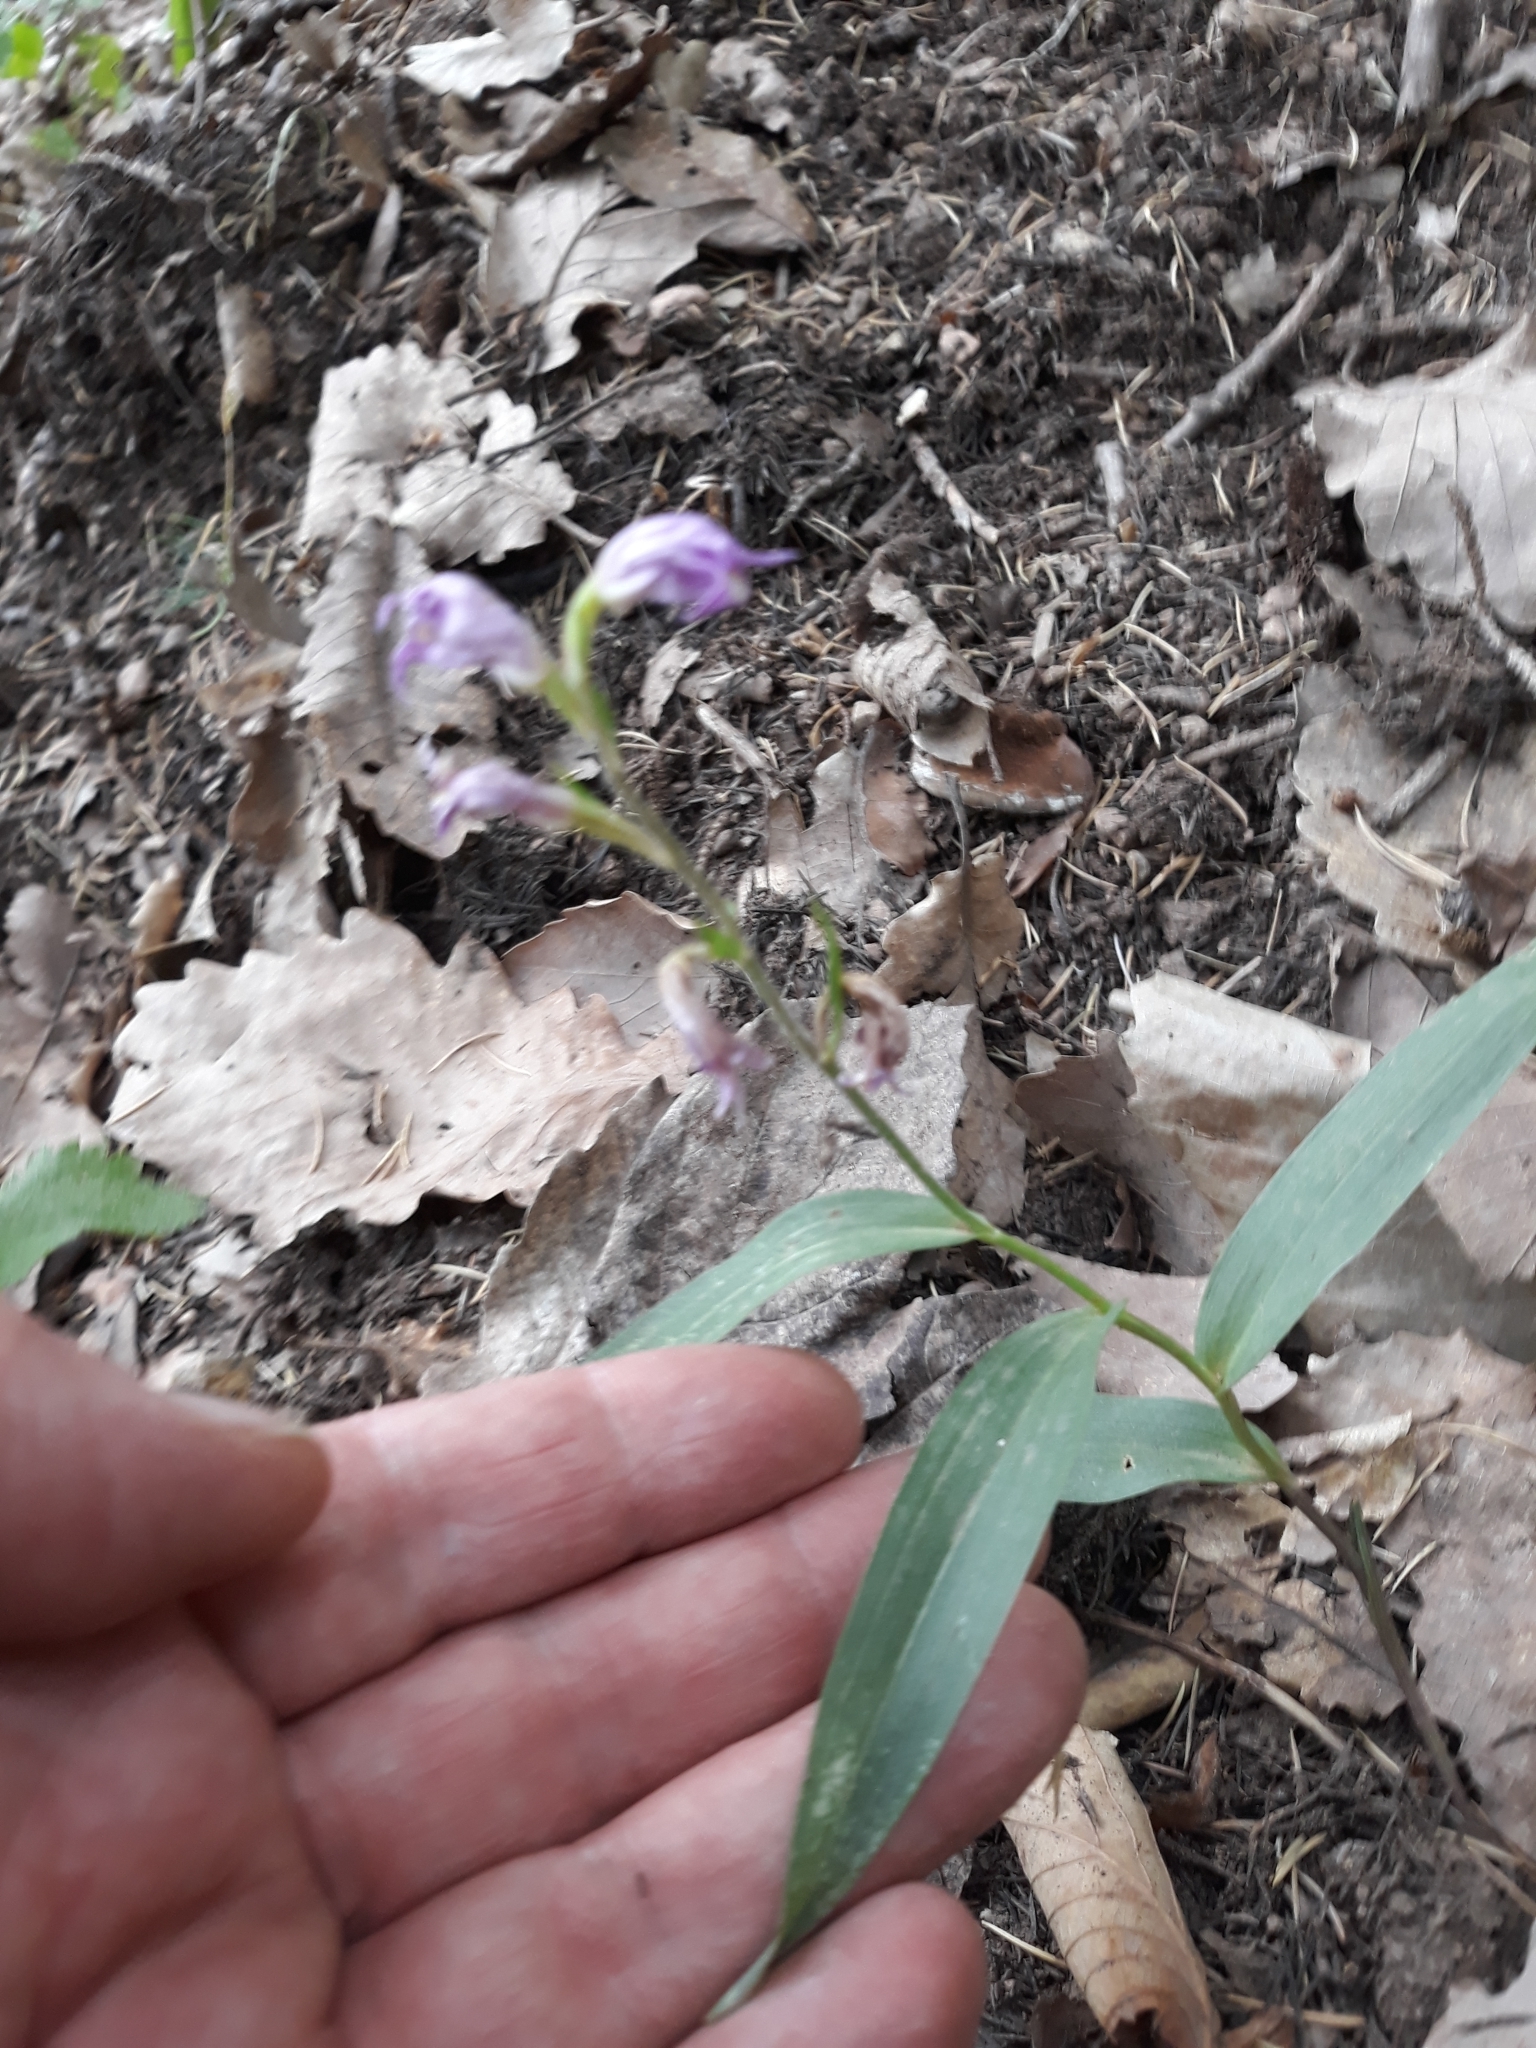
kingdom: Plantae
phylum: Tracheophyta
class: Liliopsida
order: Asparagales
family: Orchidaceae
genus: Cephalanthera
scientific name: Cephalanthera rubra
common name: Red helleborine
